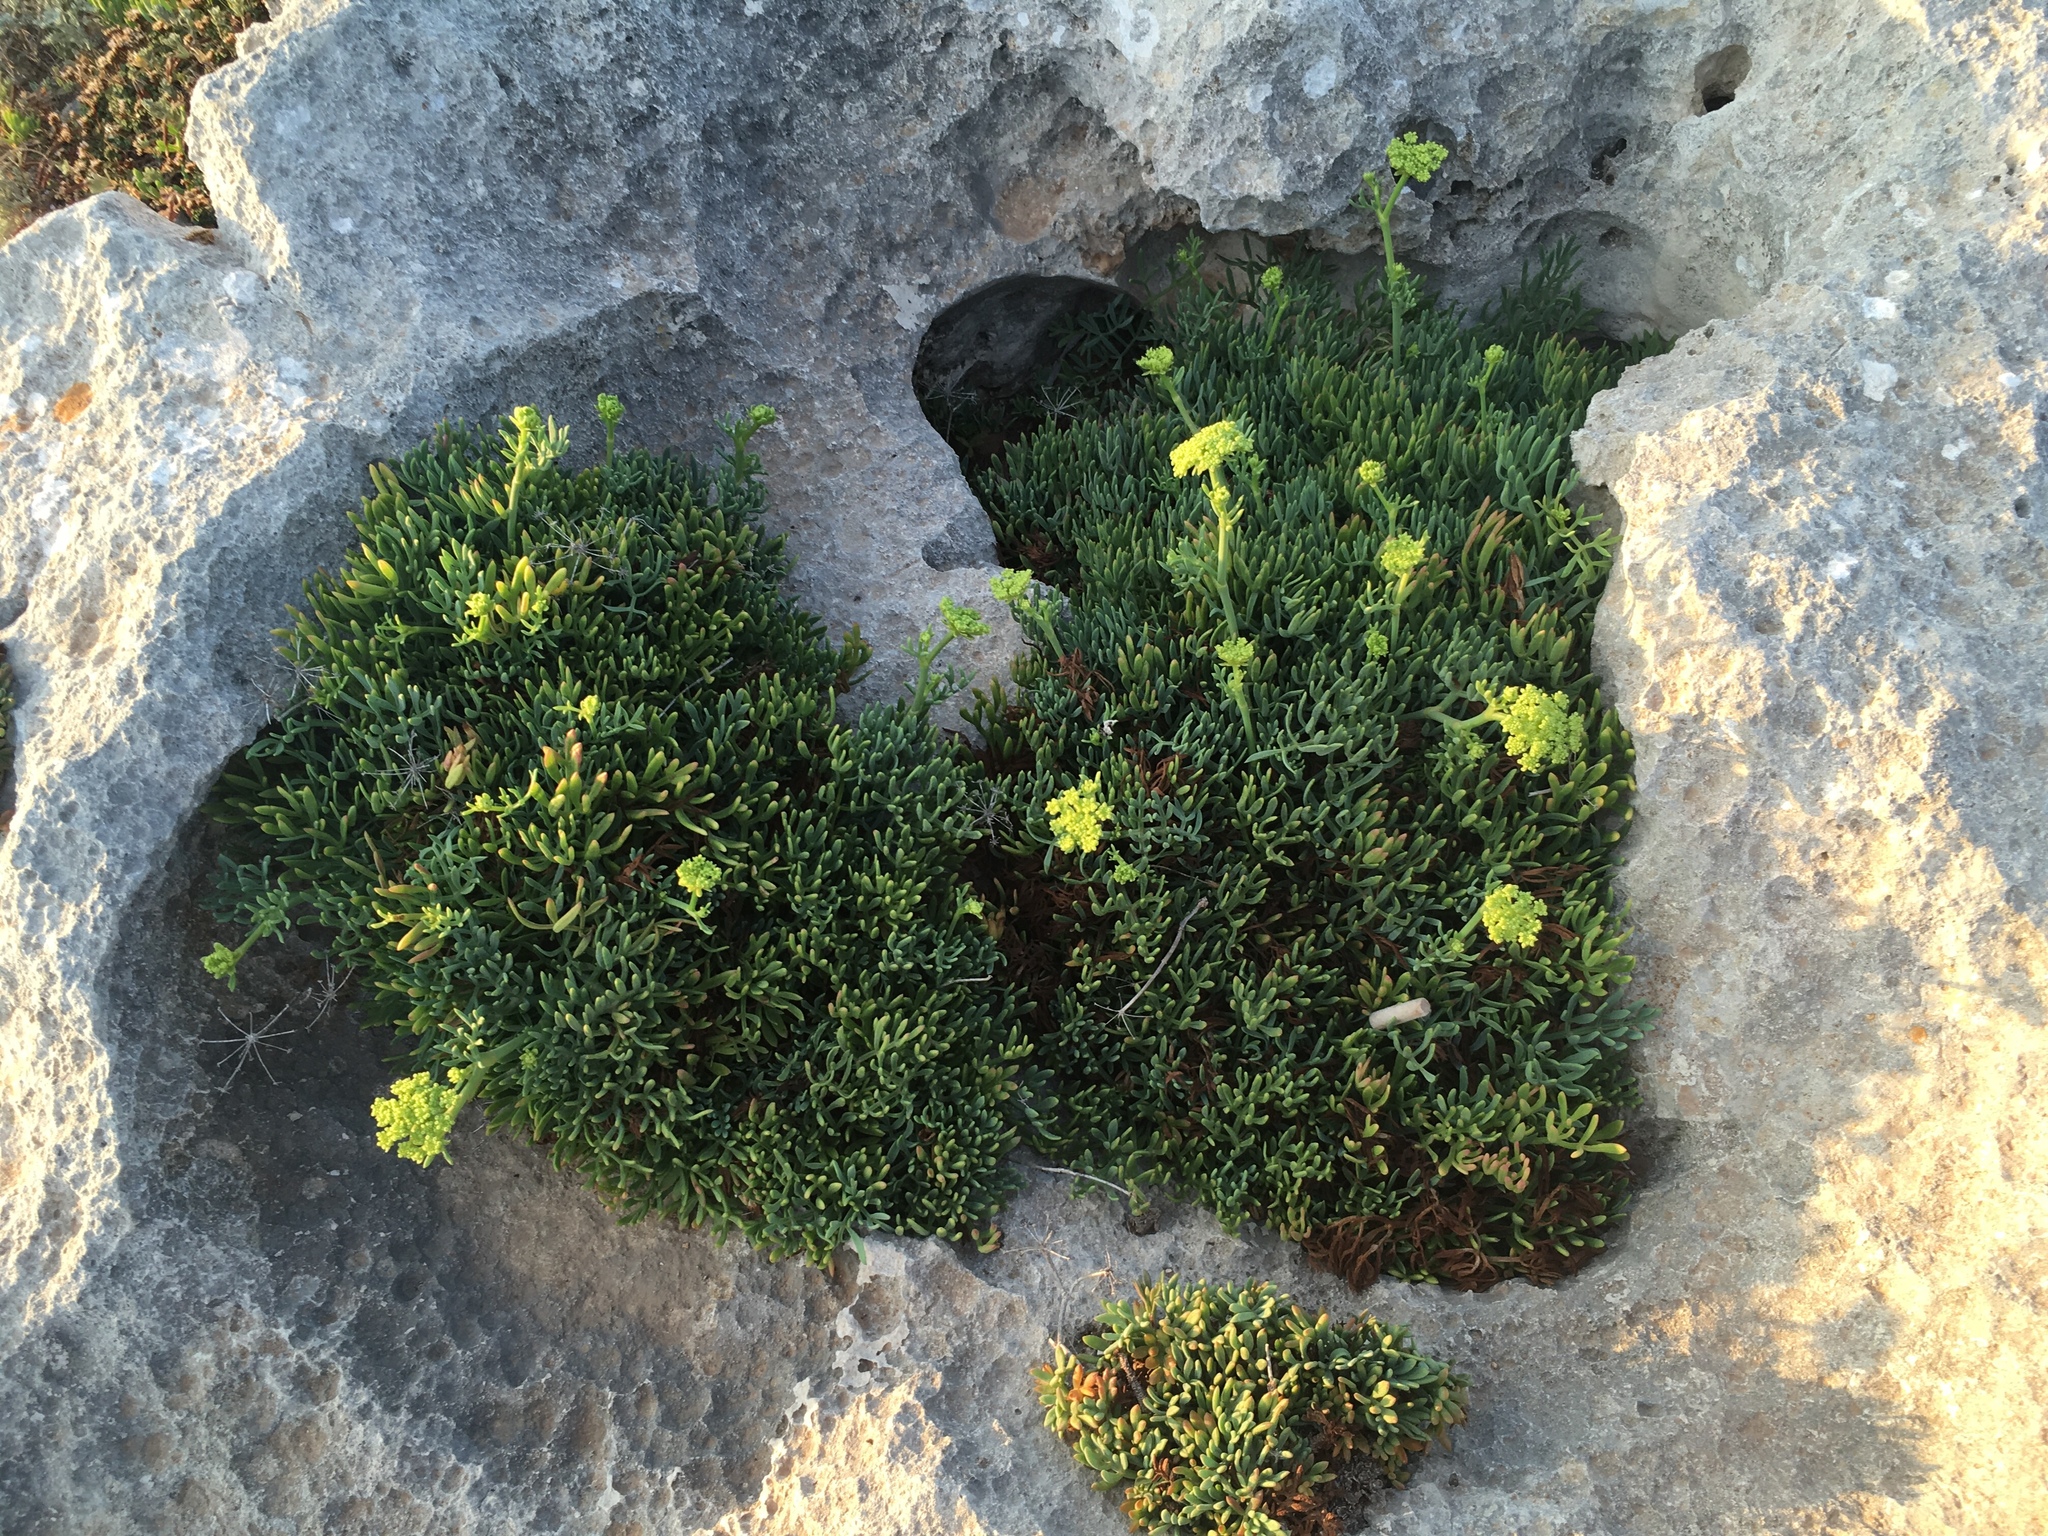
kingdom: Plantae
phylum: Tracheophyta
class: Magnoliopsida
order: Apiales
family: Apiaceae
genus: Crithmum
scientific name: Crithmum maritimum
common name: Rock samphire
